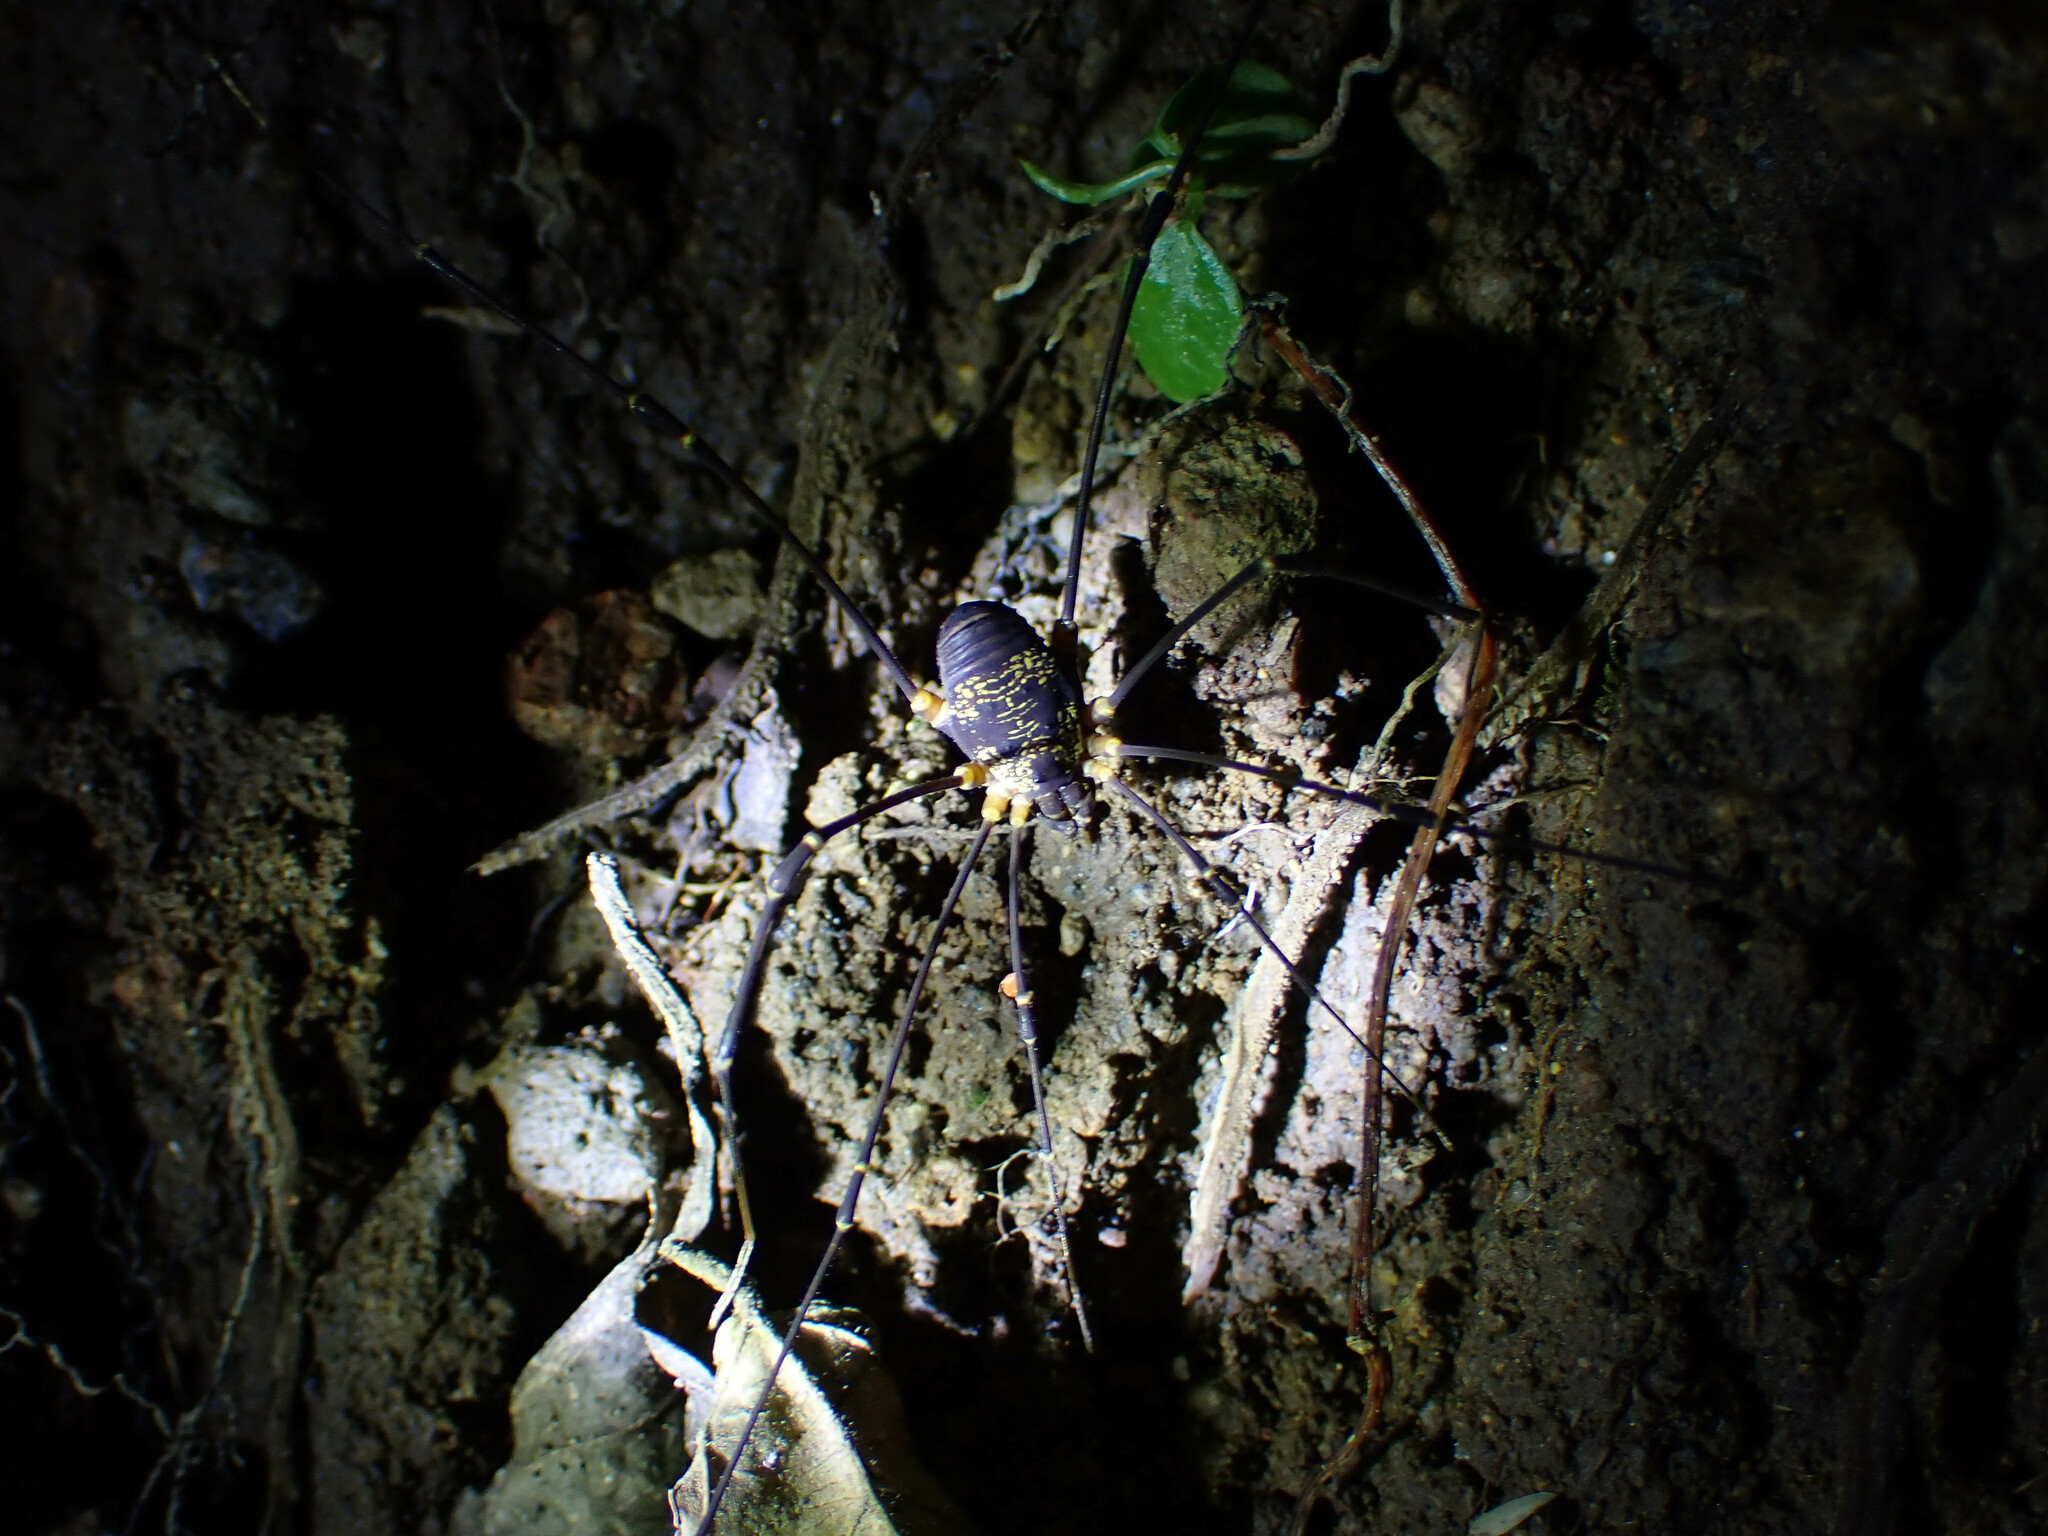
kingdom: Animalia
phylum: Arthropoda
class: Arachnida
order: Opiliones
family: Cosmetidae
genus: Eupoecilaema
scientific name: Eupoecilaema magnum
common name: Harvestmen
